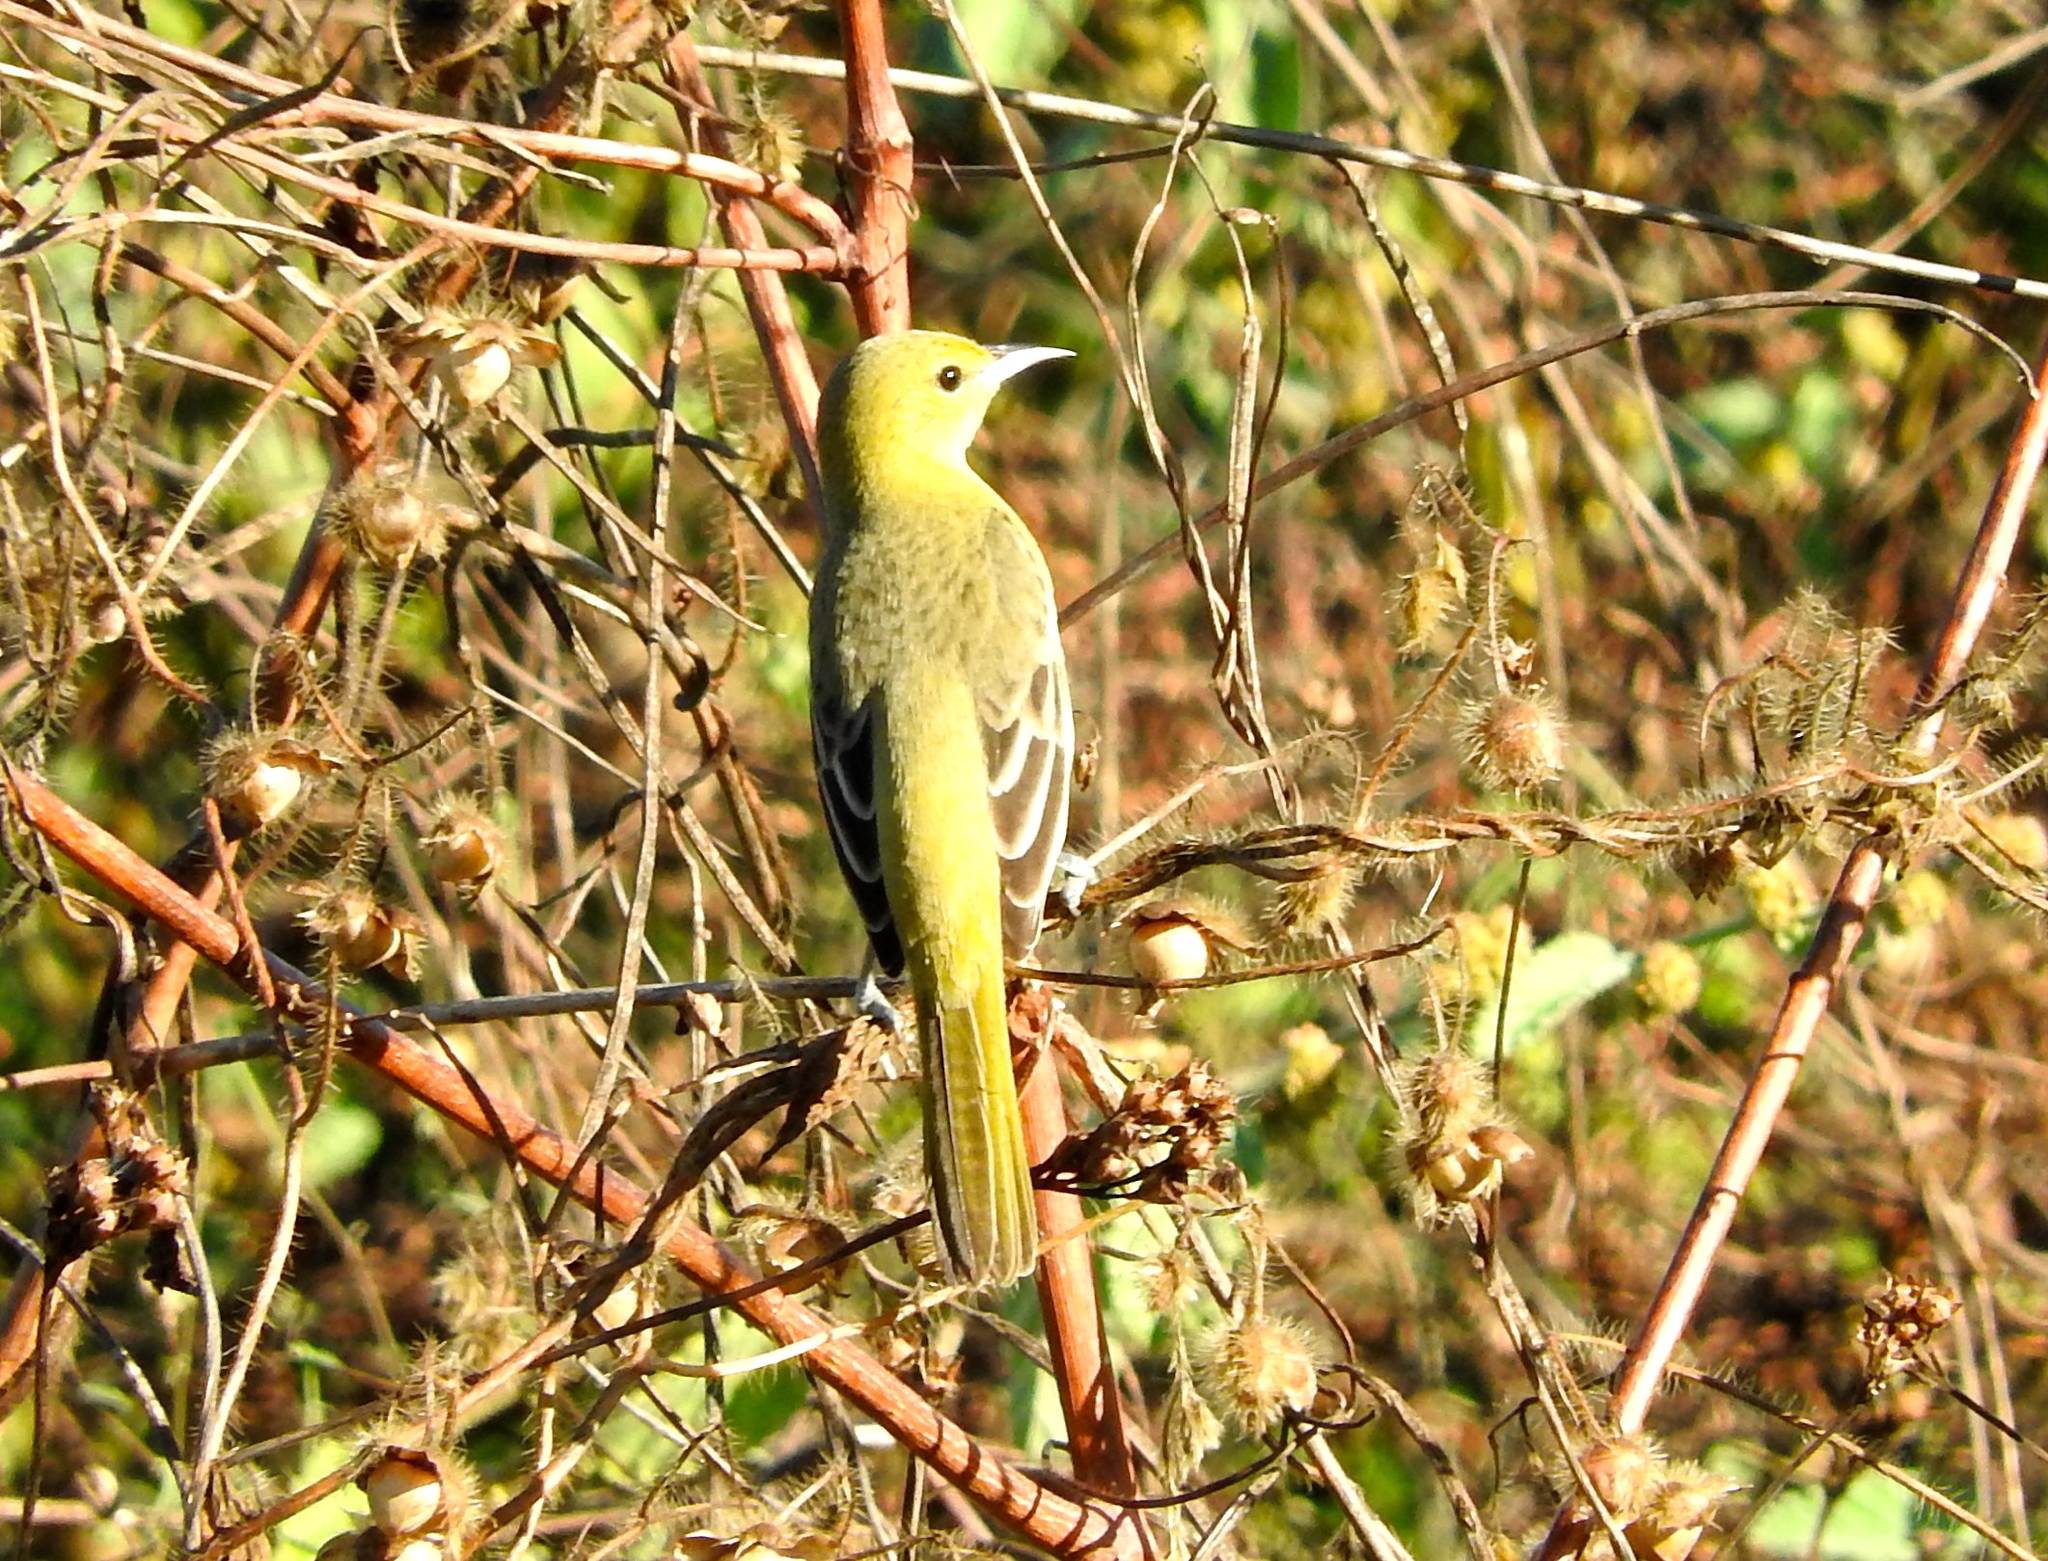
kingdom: Animalia
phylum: Chordata
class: Aves
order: Passeriformes
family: Icteridae
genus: Icterus
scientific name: Icterus spurius
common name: Orchard oriole
